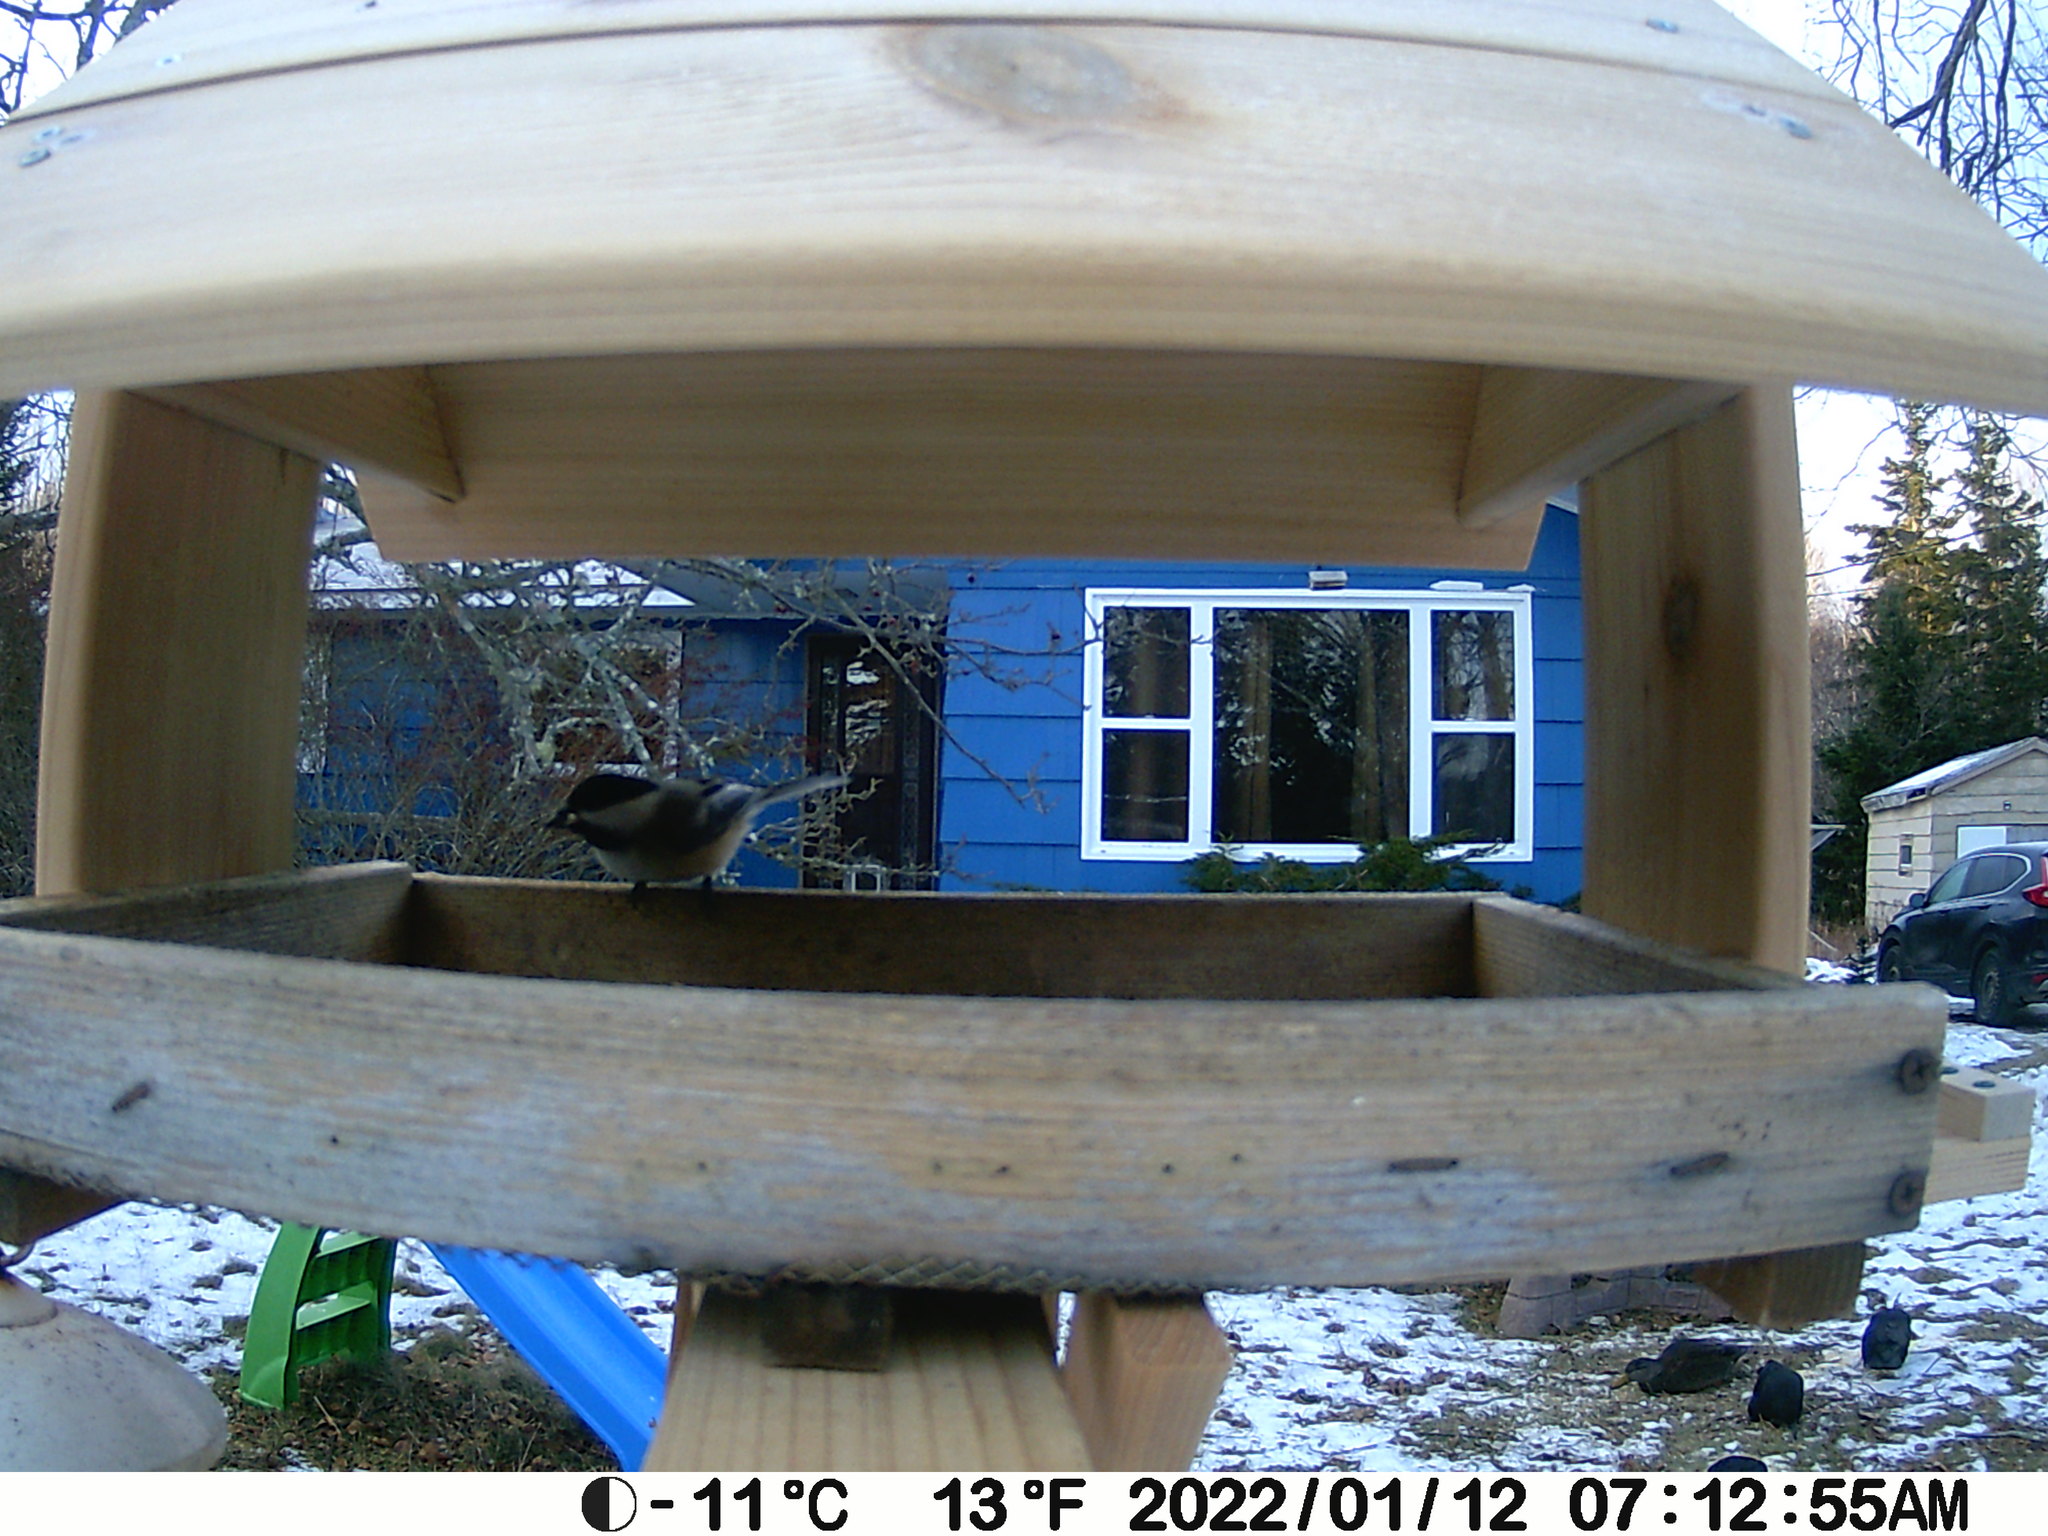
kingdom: Animalia
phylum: Chordata
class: Aves
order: Passeriformes
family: Corvidae
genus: Corvus
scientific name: Corvus brachyrhynchos
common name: American crow
